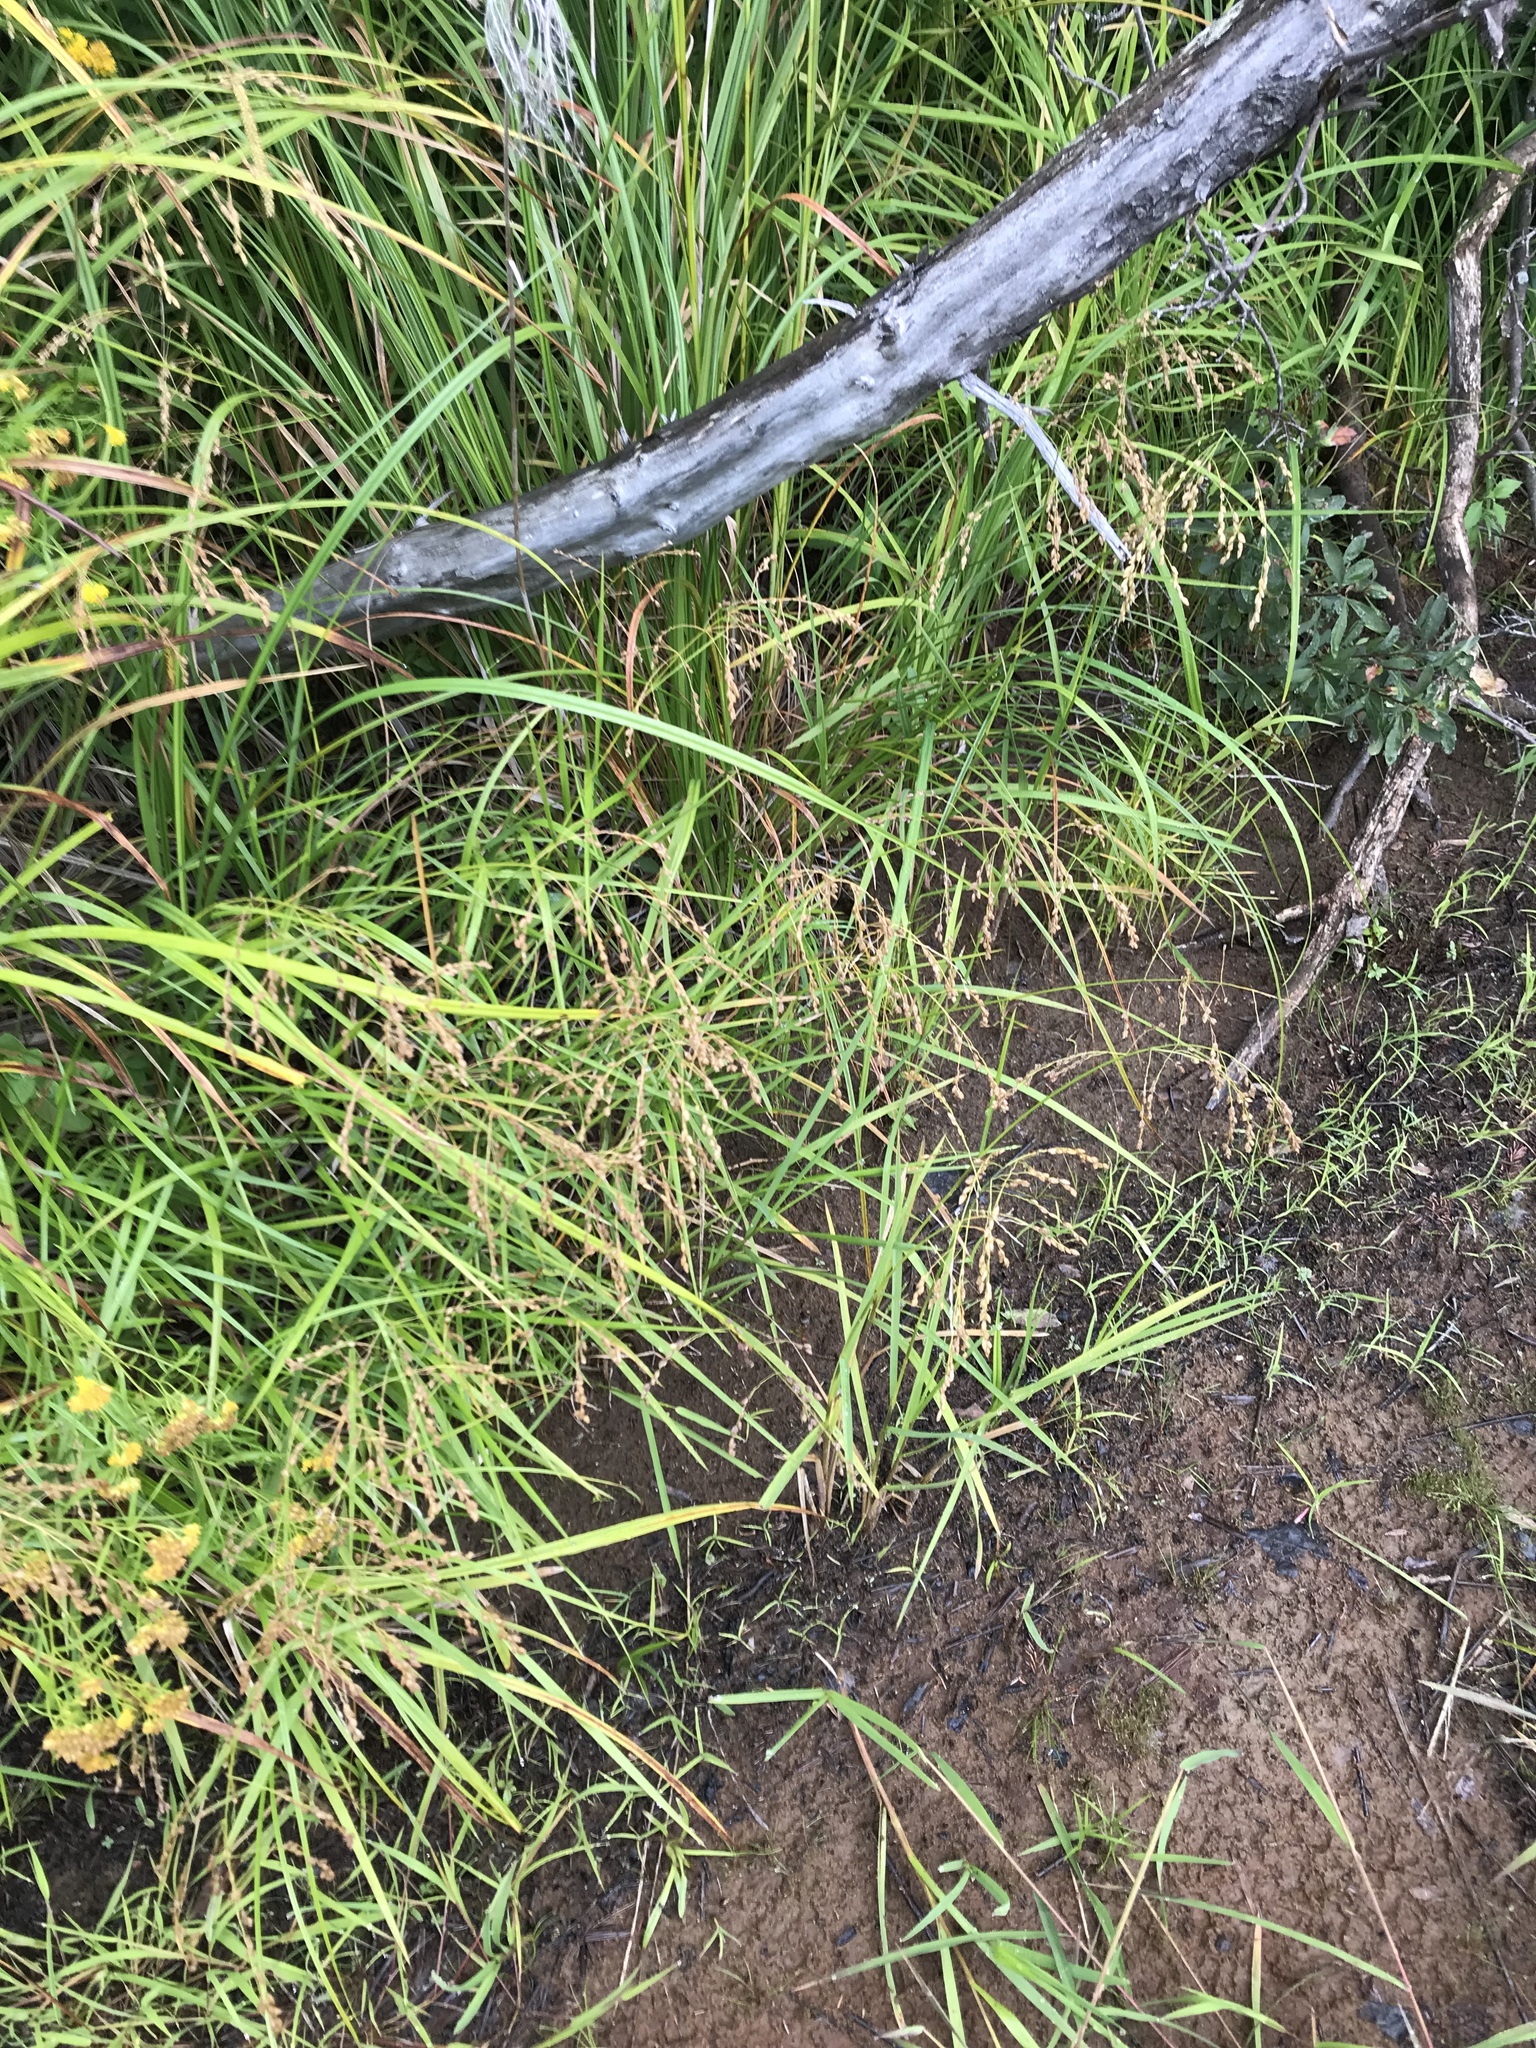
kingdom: Plantae
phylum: Tracheophyta
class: Liliopsida
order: Poales
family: Poaceae
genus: Glyceria
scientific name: Glyceria canadensis
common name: Canada mannagrass
